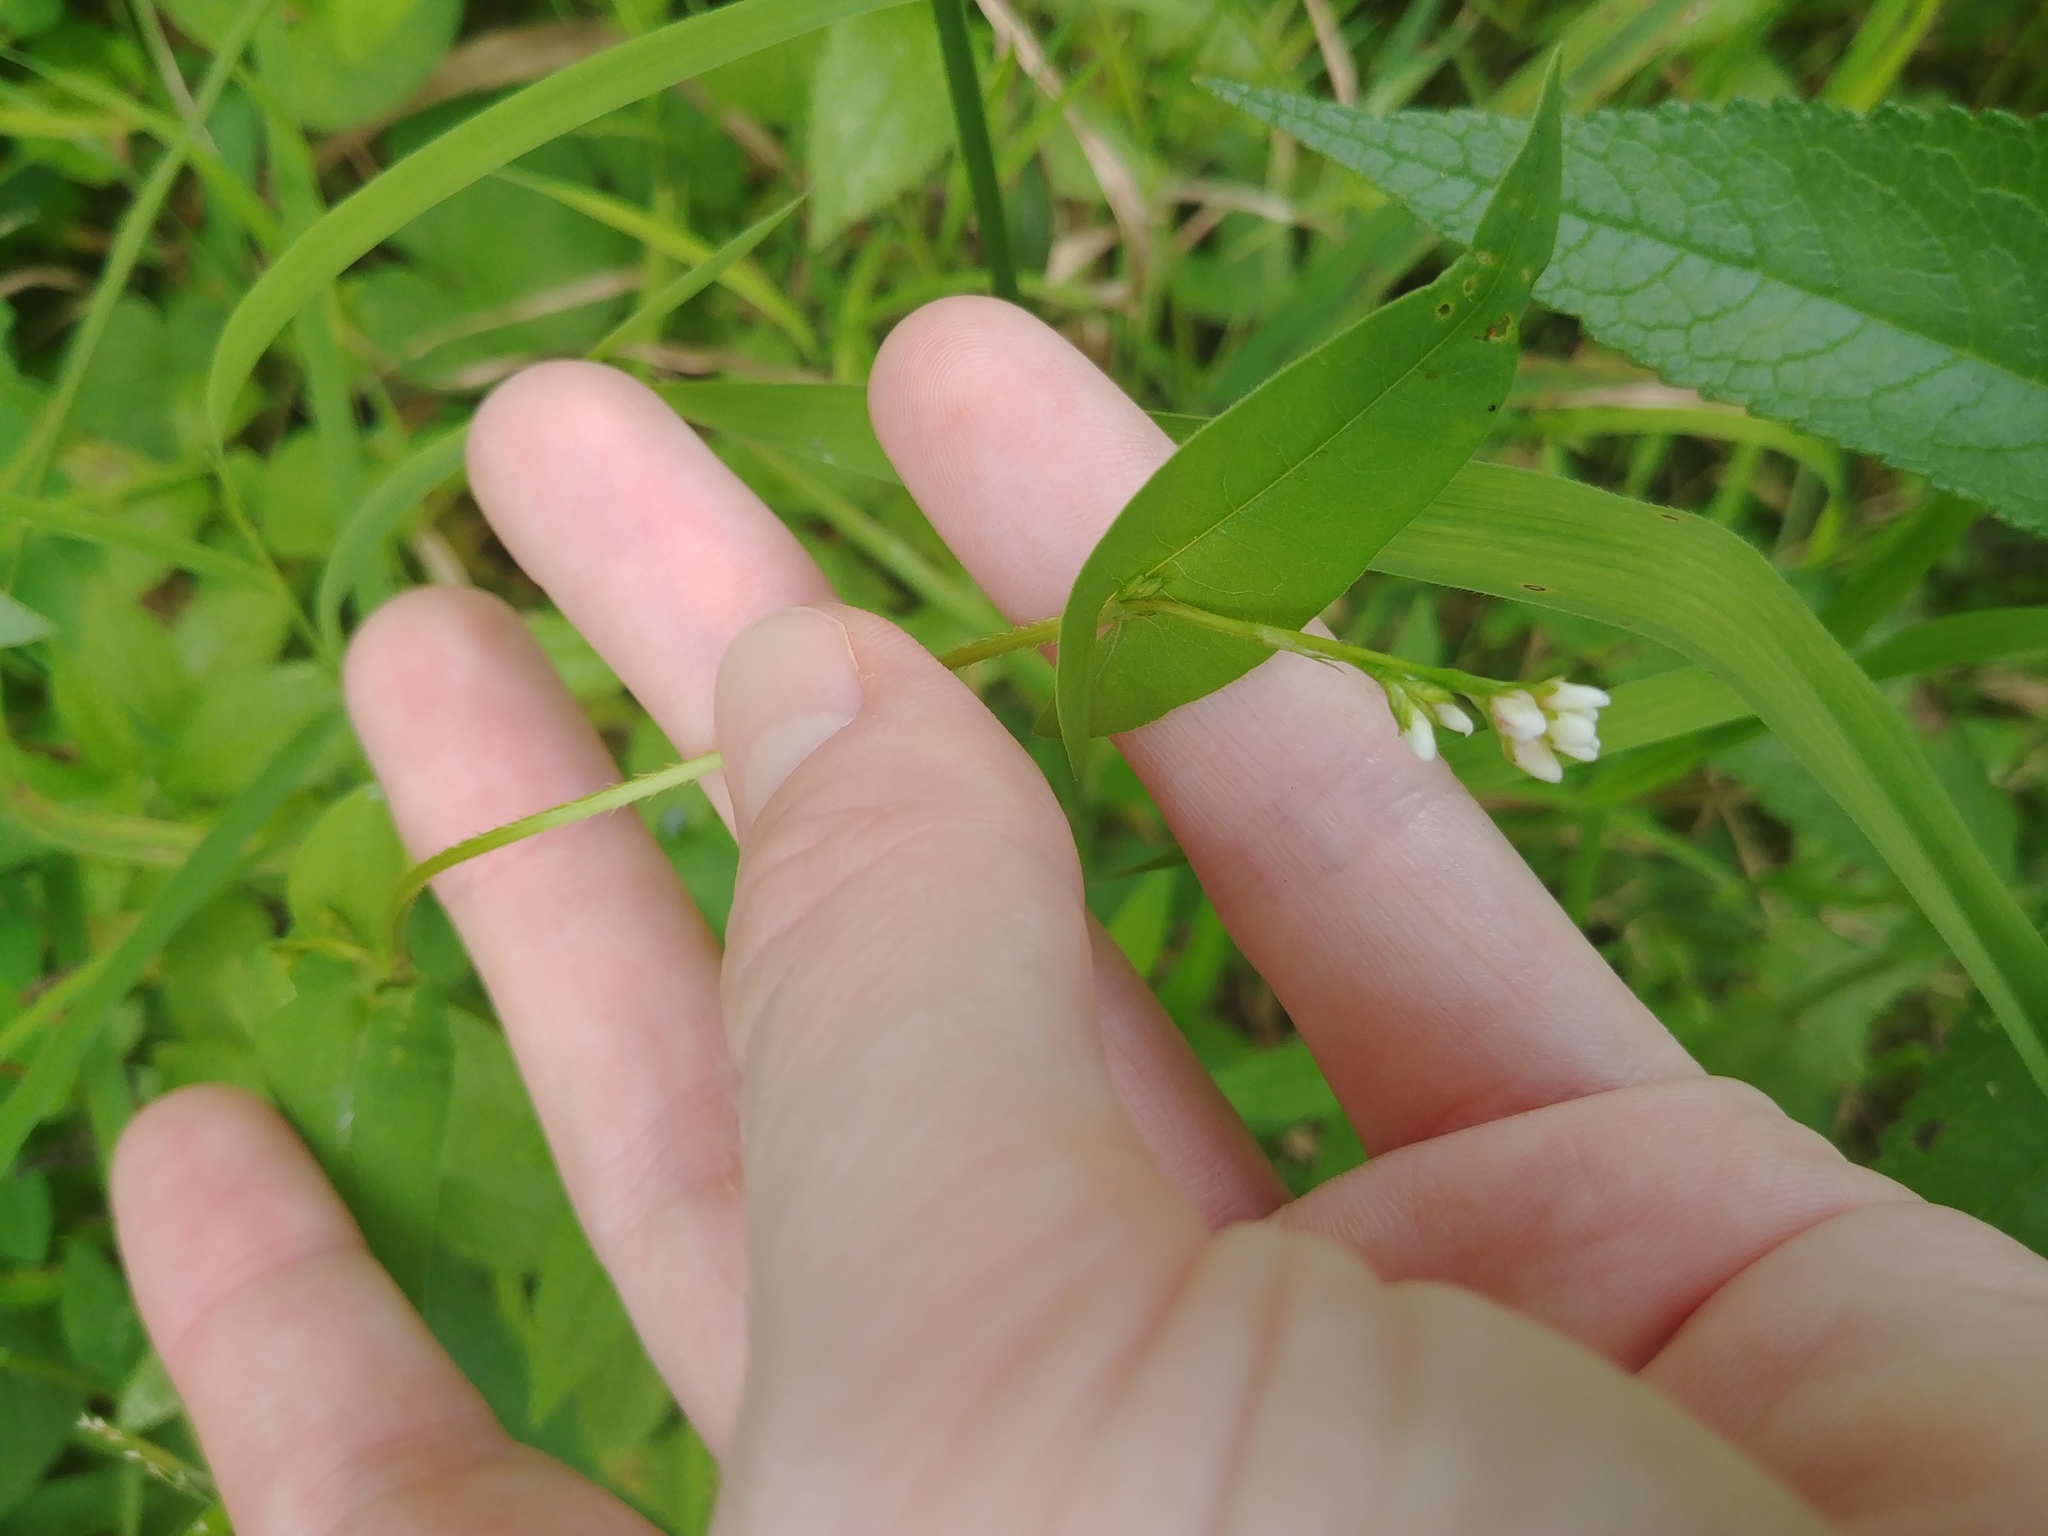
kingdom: Plantae
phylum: Tracheophyta
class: Magnoliopsida
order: Caryophyllales
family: Polygonaceae
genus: Persicaria
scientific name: Persicaria sagittata
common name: American tearthumb
